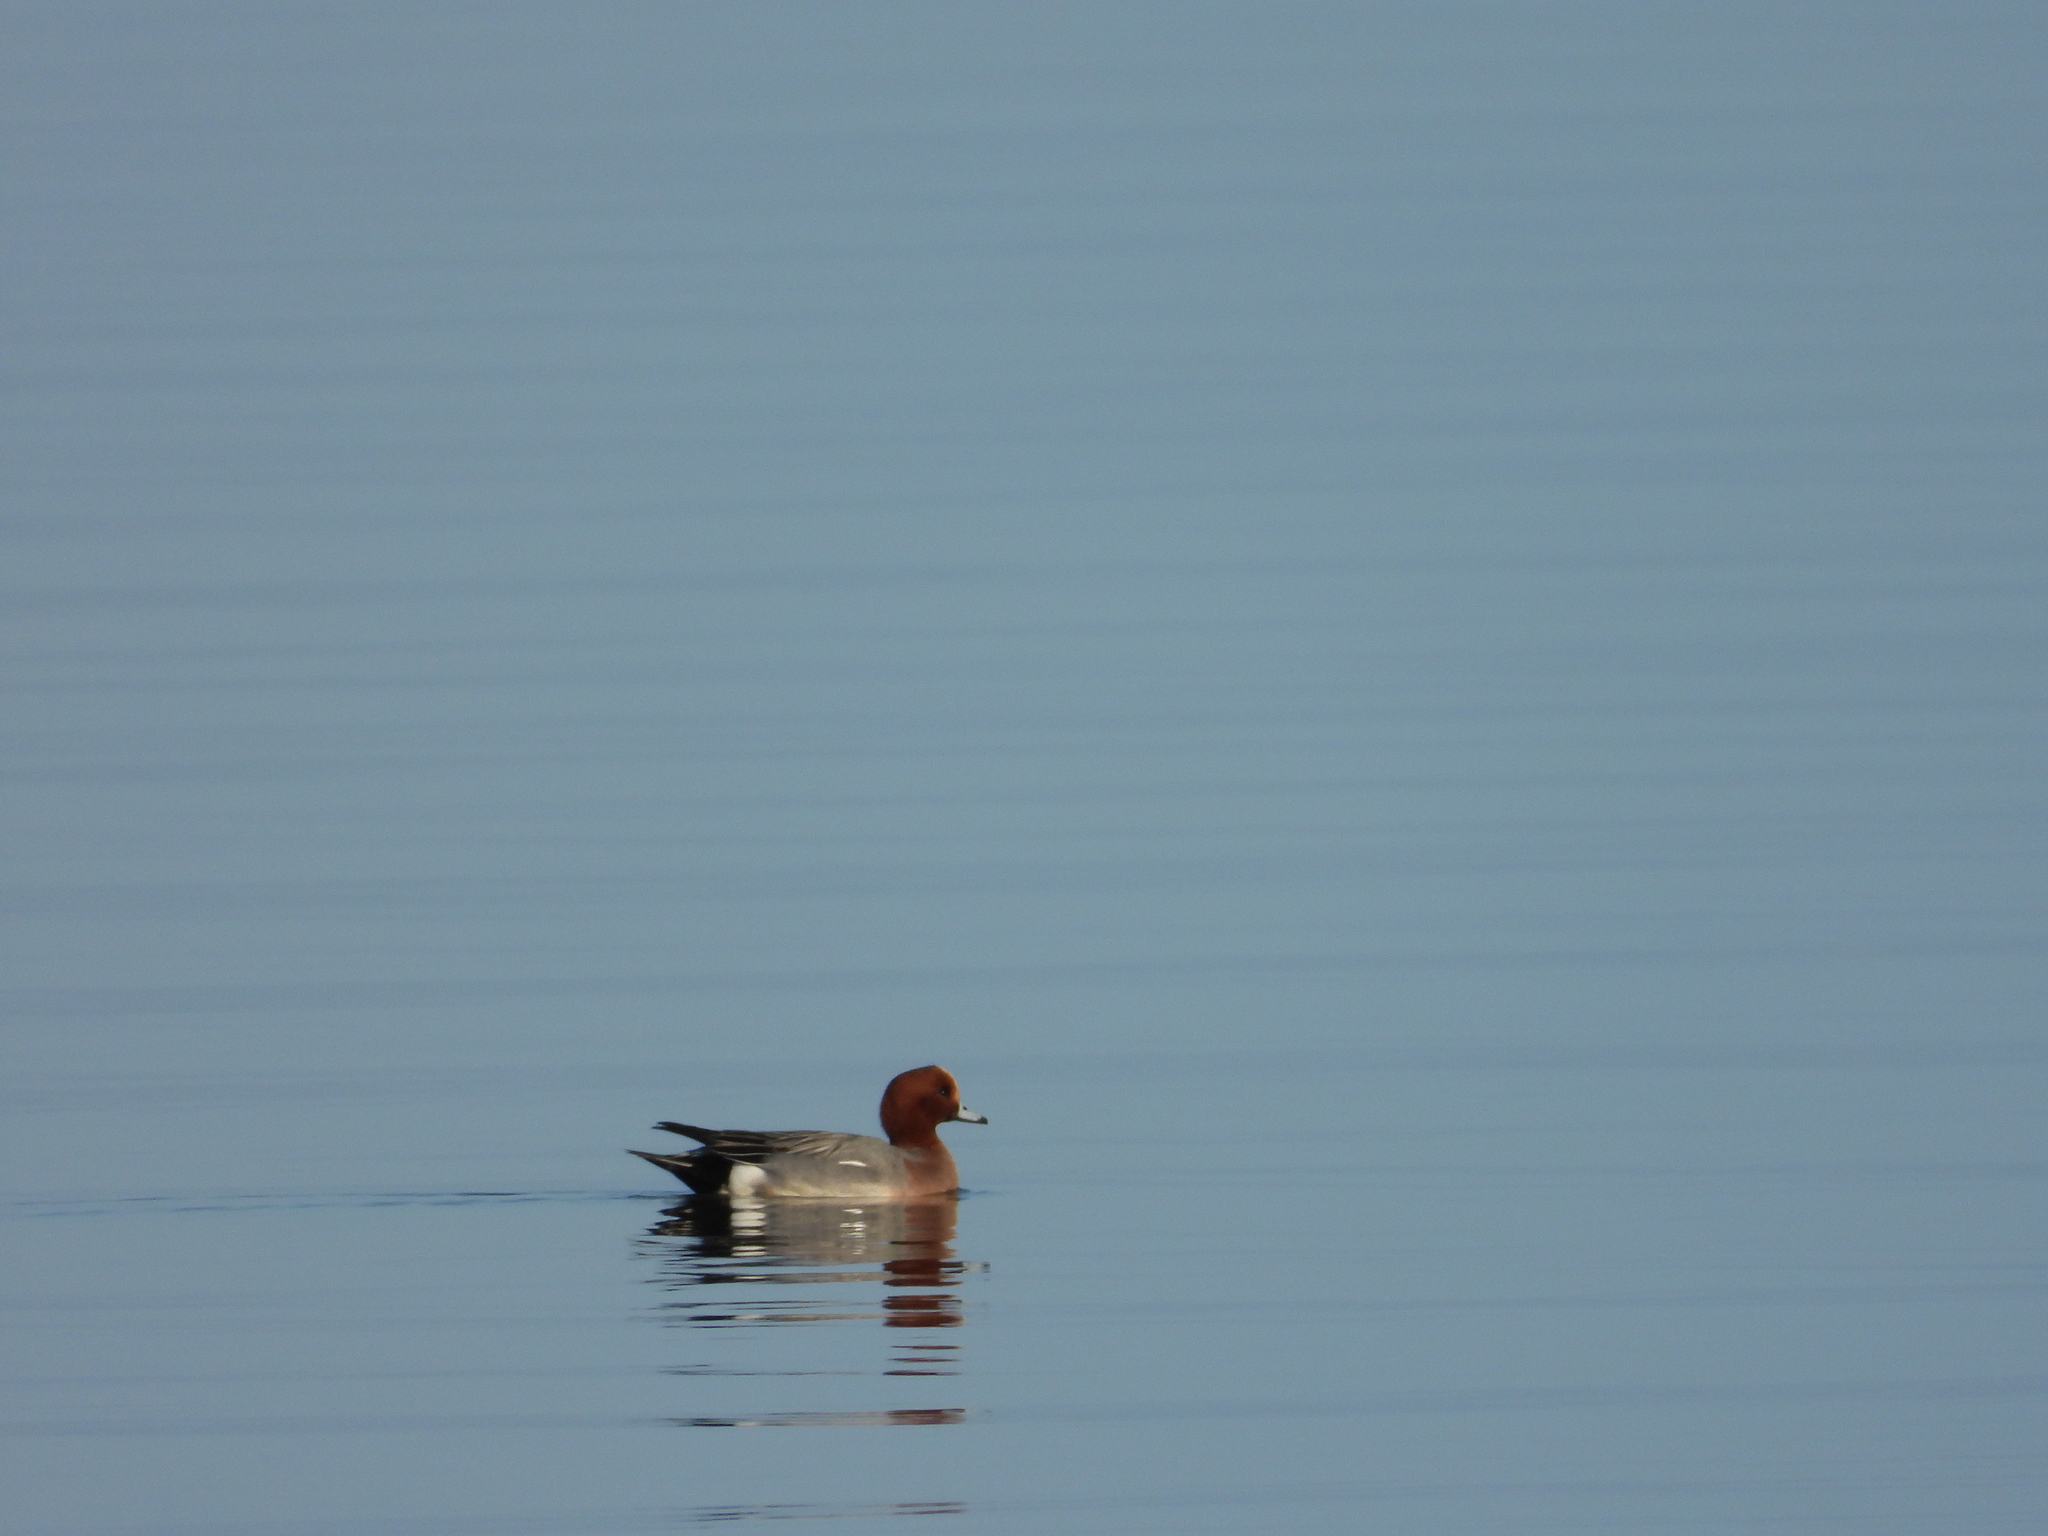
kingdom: Animalia
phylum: Chordata
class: Aves
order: Anseriformes
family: Anatidae
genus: Mareca
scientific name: Mareca penelope
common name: Eurasian wigeon
